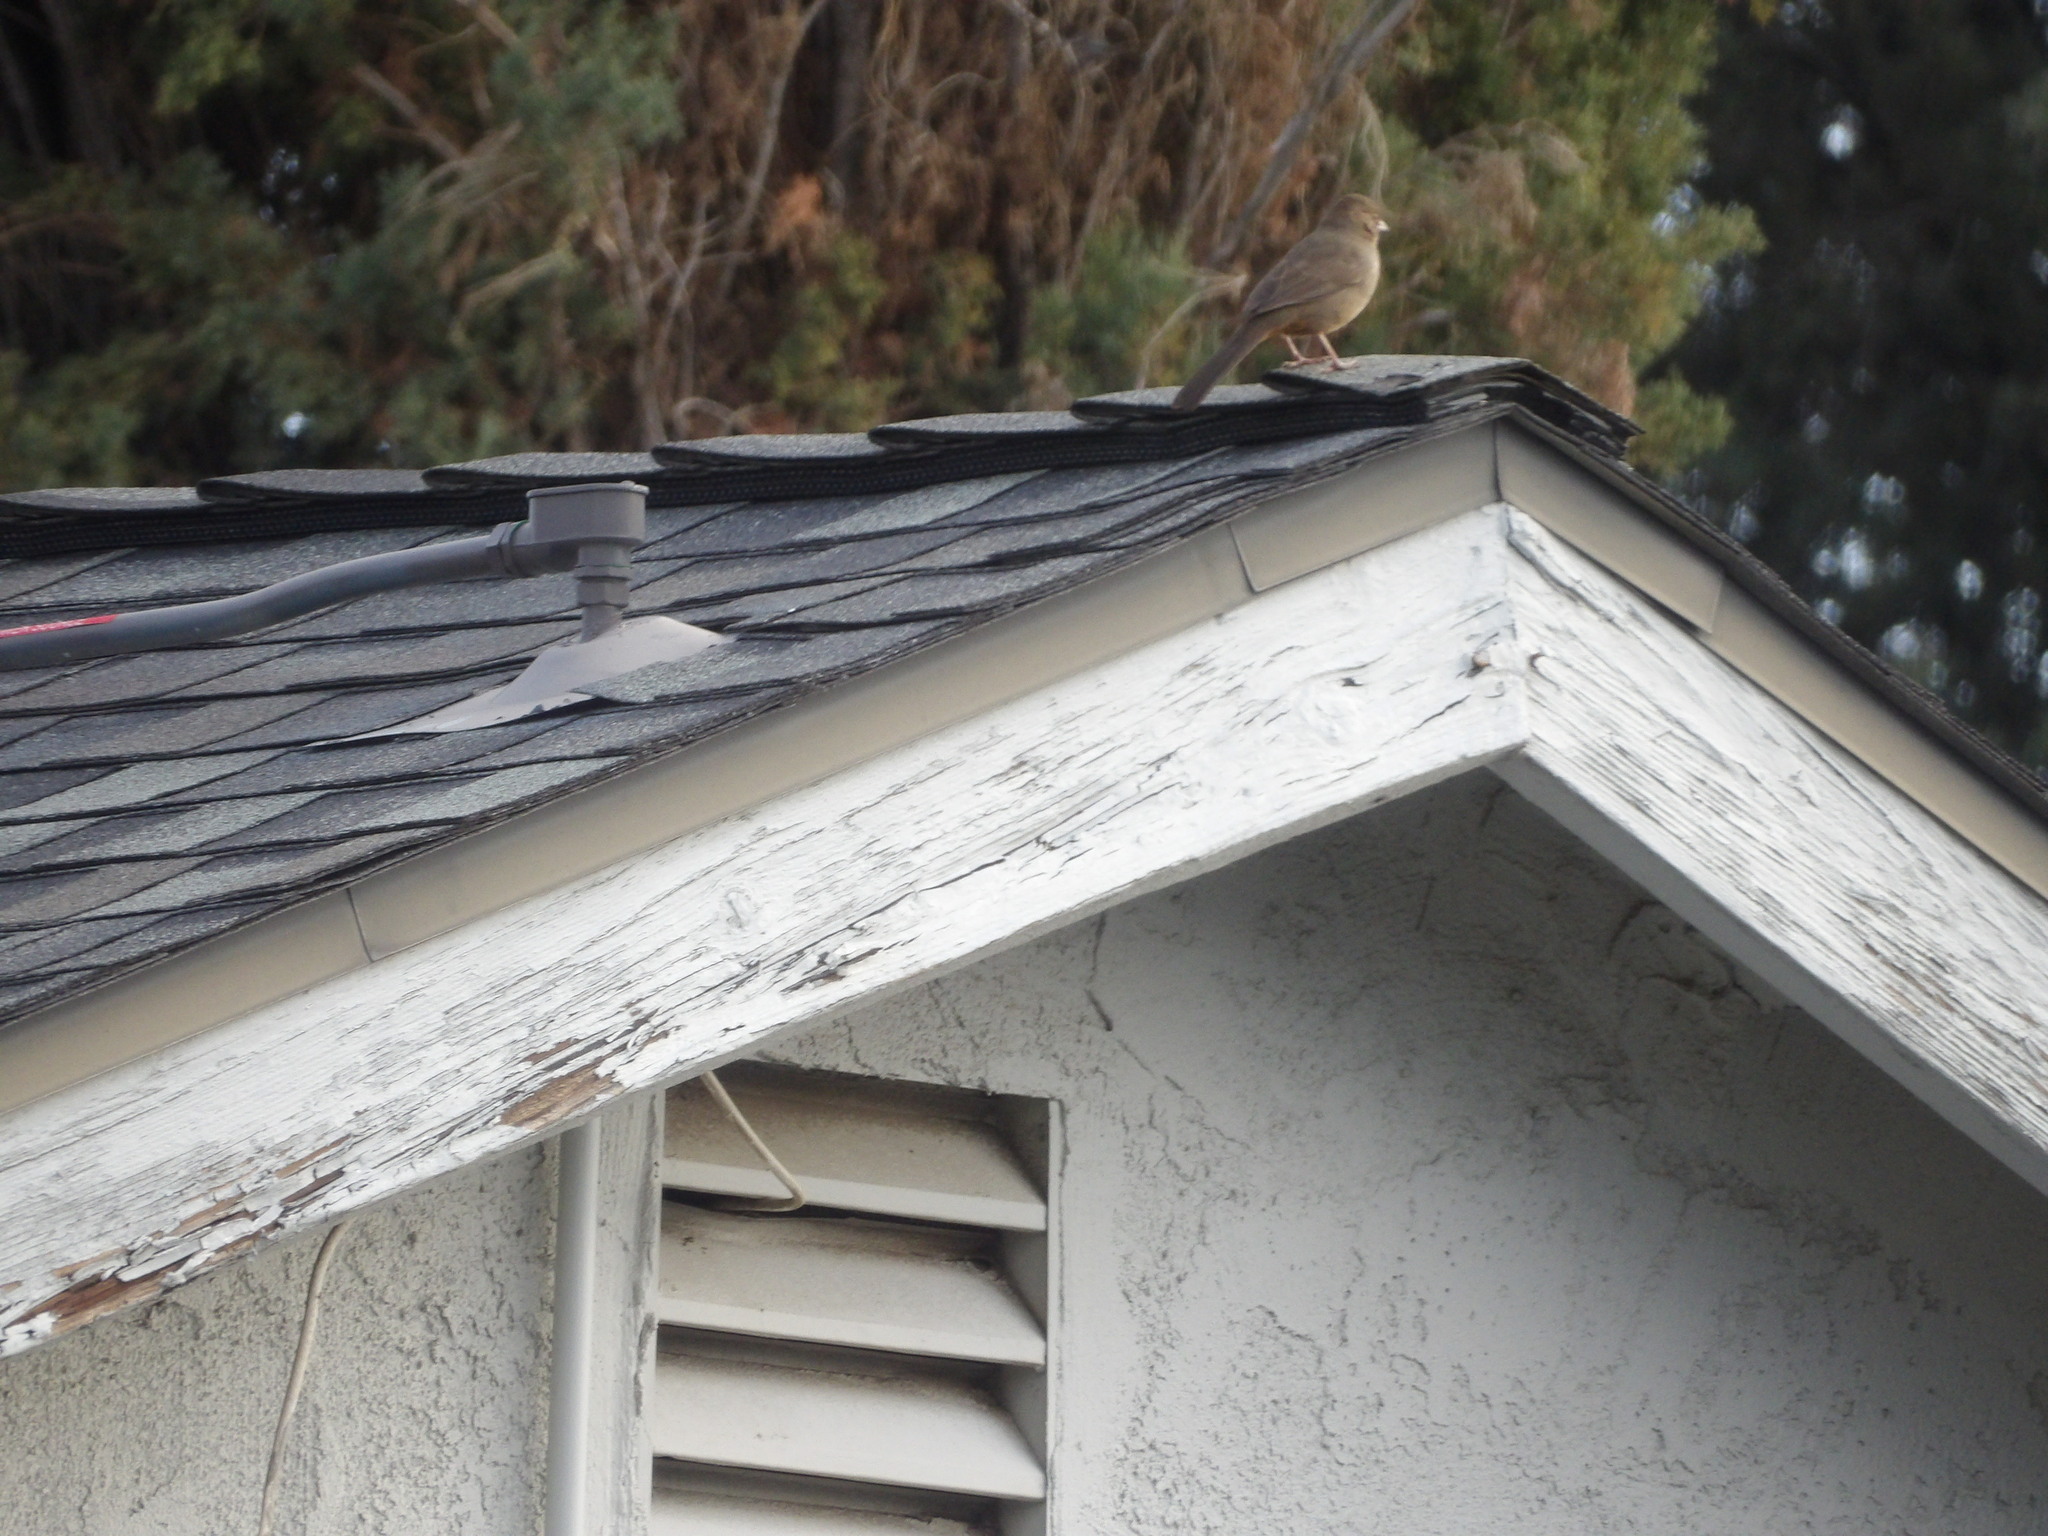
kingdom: Animalia
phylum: Chordata
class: Aves
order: Passeriformes
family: Passerellidae
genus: Melozone
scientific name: Melozone crissalis
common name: California towhee
